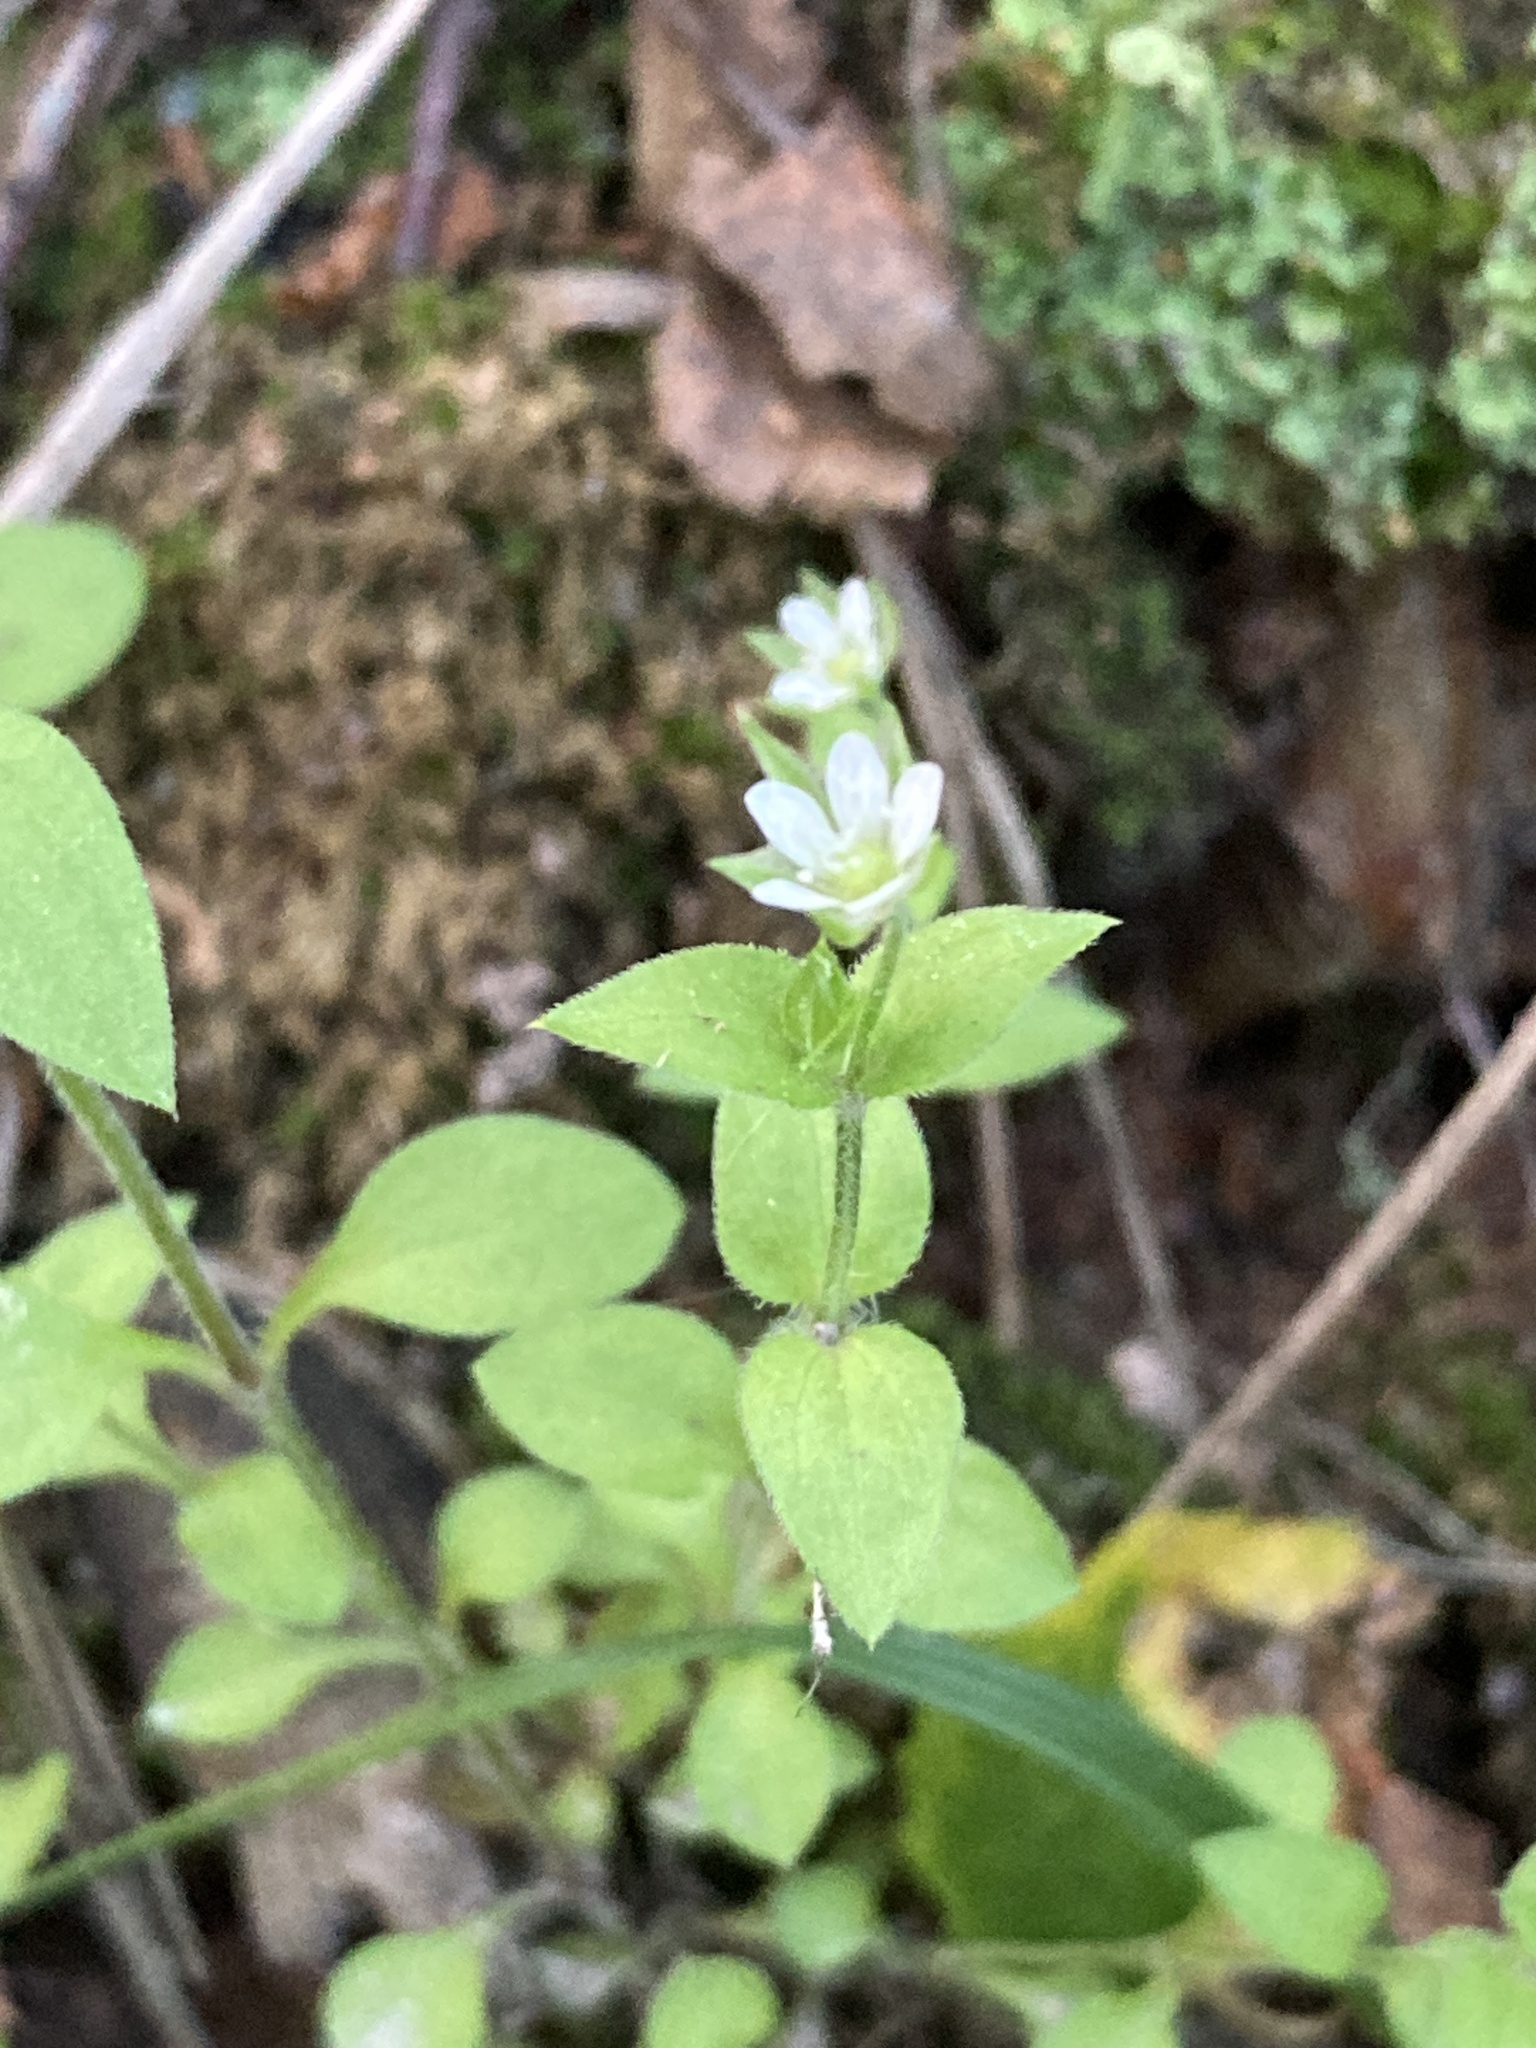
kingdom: Plantae
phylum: Tracheophyta
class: Magnoliopsida
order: Caryophyllales
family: Caryophyllaceae
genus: Moehringia
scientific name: Moehringia trinervia
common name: Three-nerved sandwort
